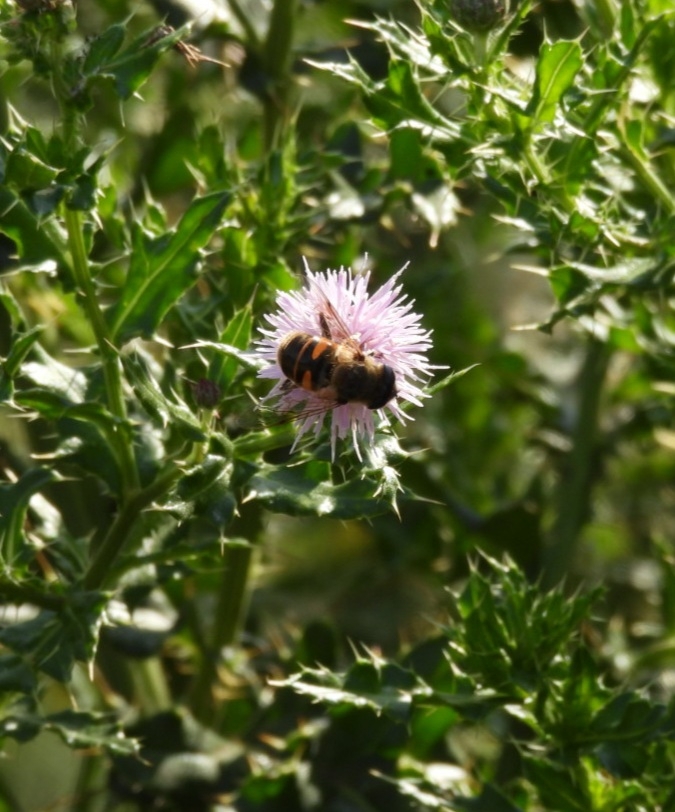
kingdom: Animalia
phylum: Arthropoda
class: Insecta
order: Diptera
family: Syrphidae
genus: Eristalis
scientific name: Eristalis tenax
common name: Drone fly
